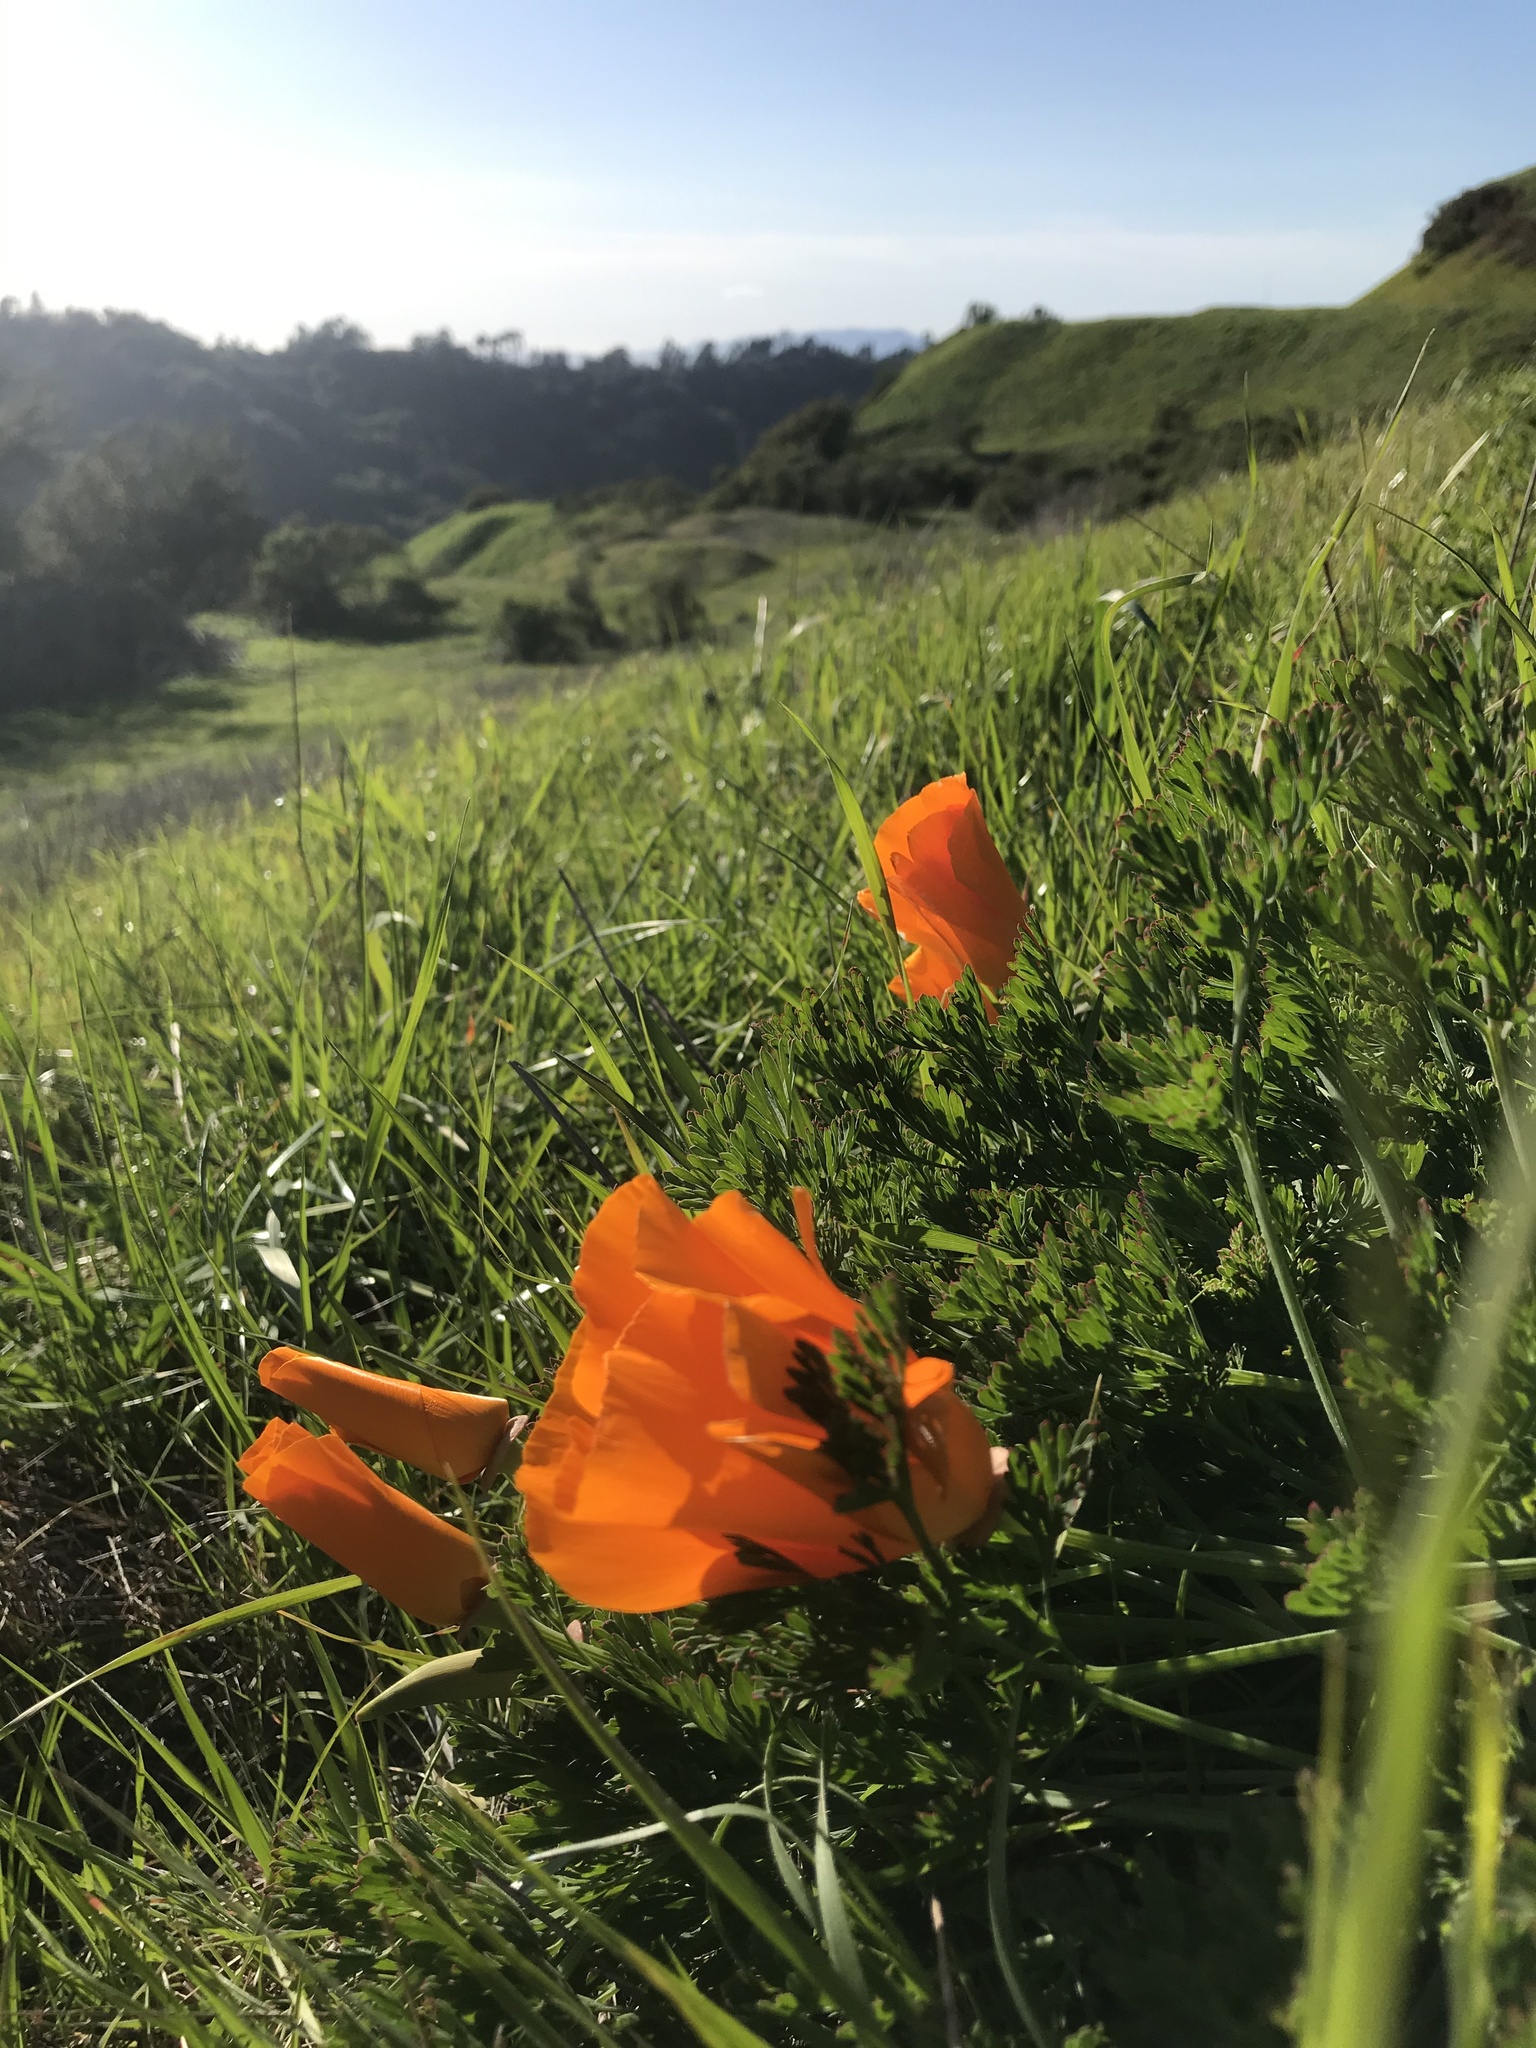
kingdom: Plantae
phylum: Tracheophyta
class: Magnoliopsida
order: Ranunculales
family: Papaveraceae
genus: Eschscholzia
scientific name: Eschscholzia californica
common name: California poppy
